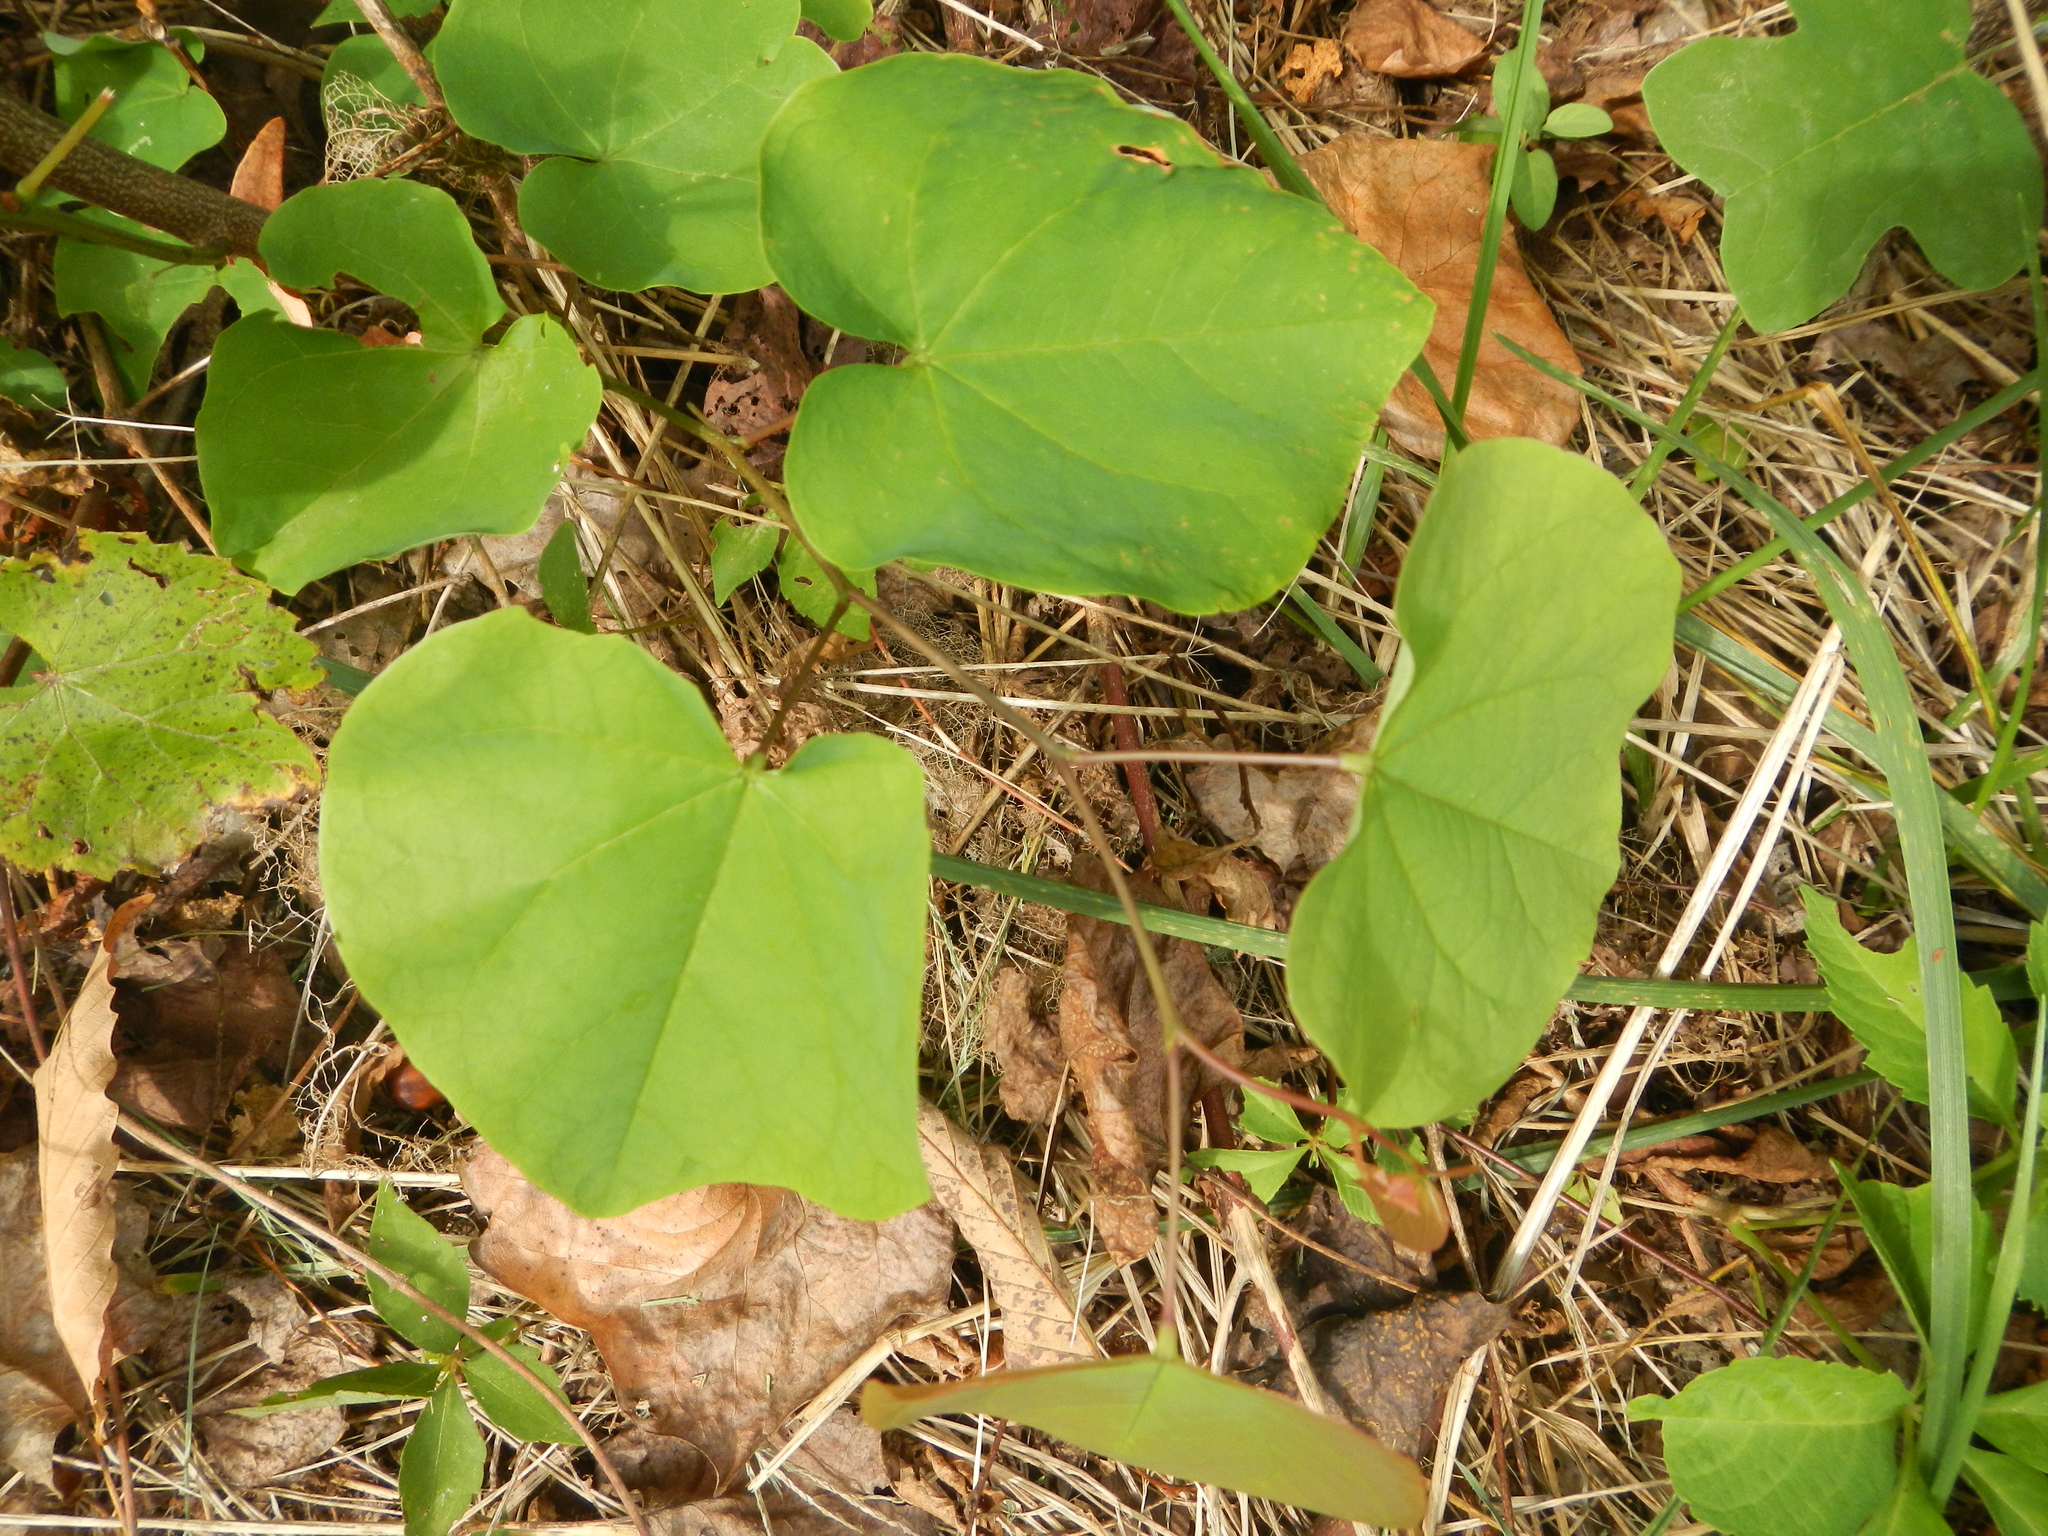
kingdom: Plantae
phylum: Tracheophyta
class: Magnoliopsida
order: Fabales
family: Fabaceae
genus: Cercis
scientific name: Cercis canadensis
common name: Eastern redbud
